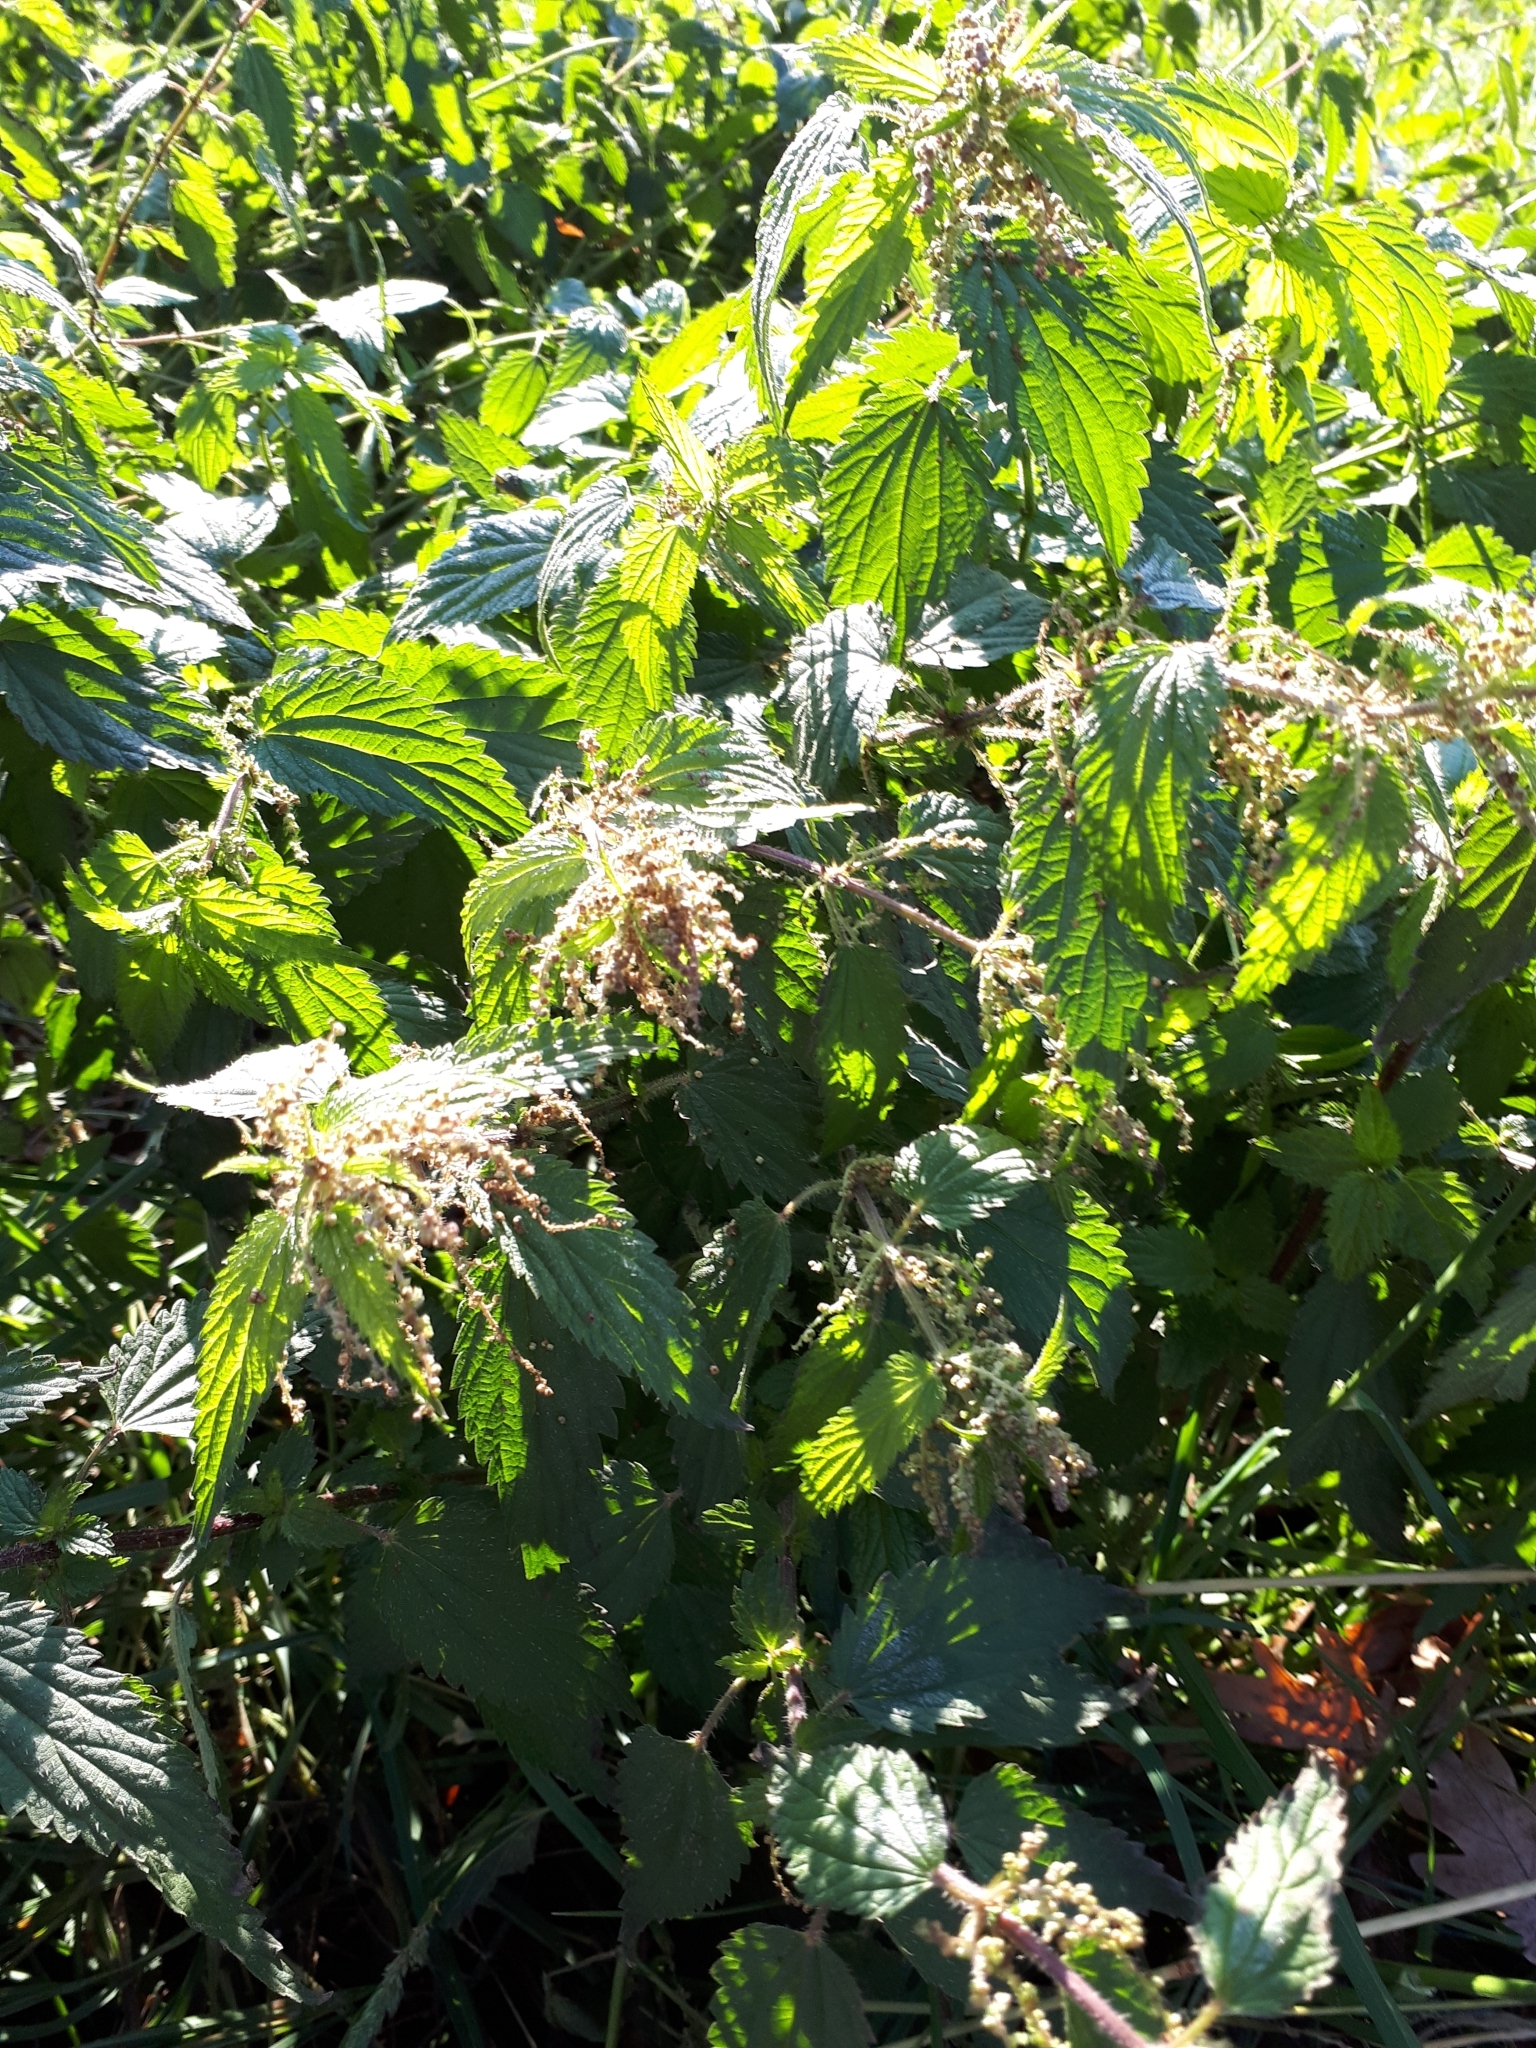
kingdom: Plantae
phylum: Tracheophyta
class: Magnoliopsida
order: Rosales
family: Urticaceae
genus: Urtica
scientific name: Urtica dioica
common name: Common nettle
